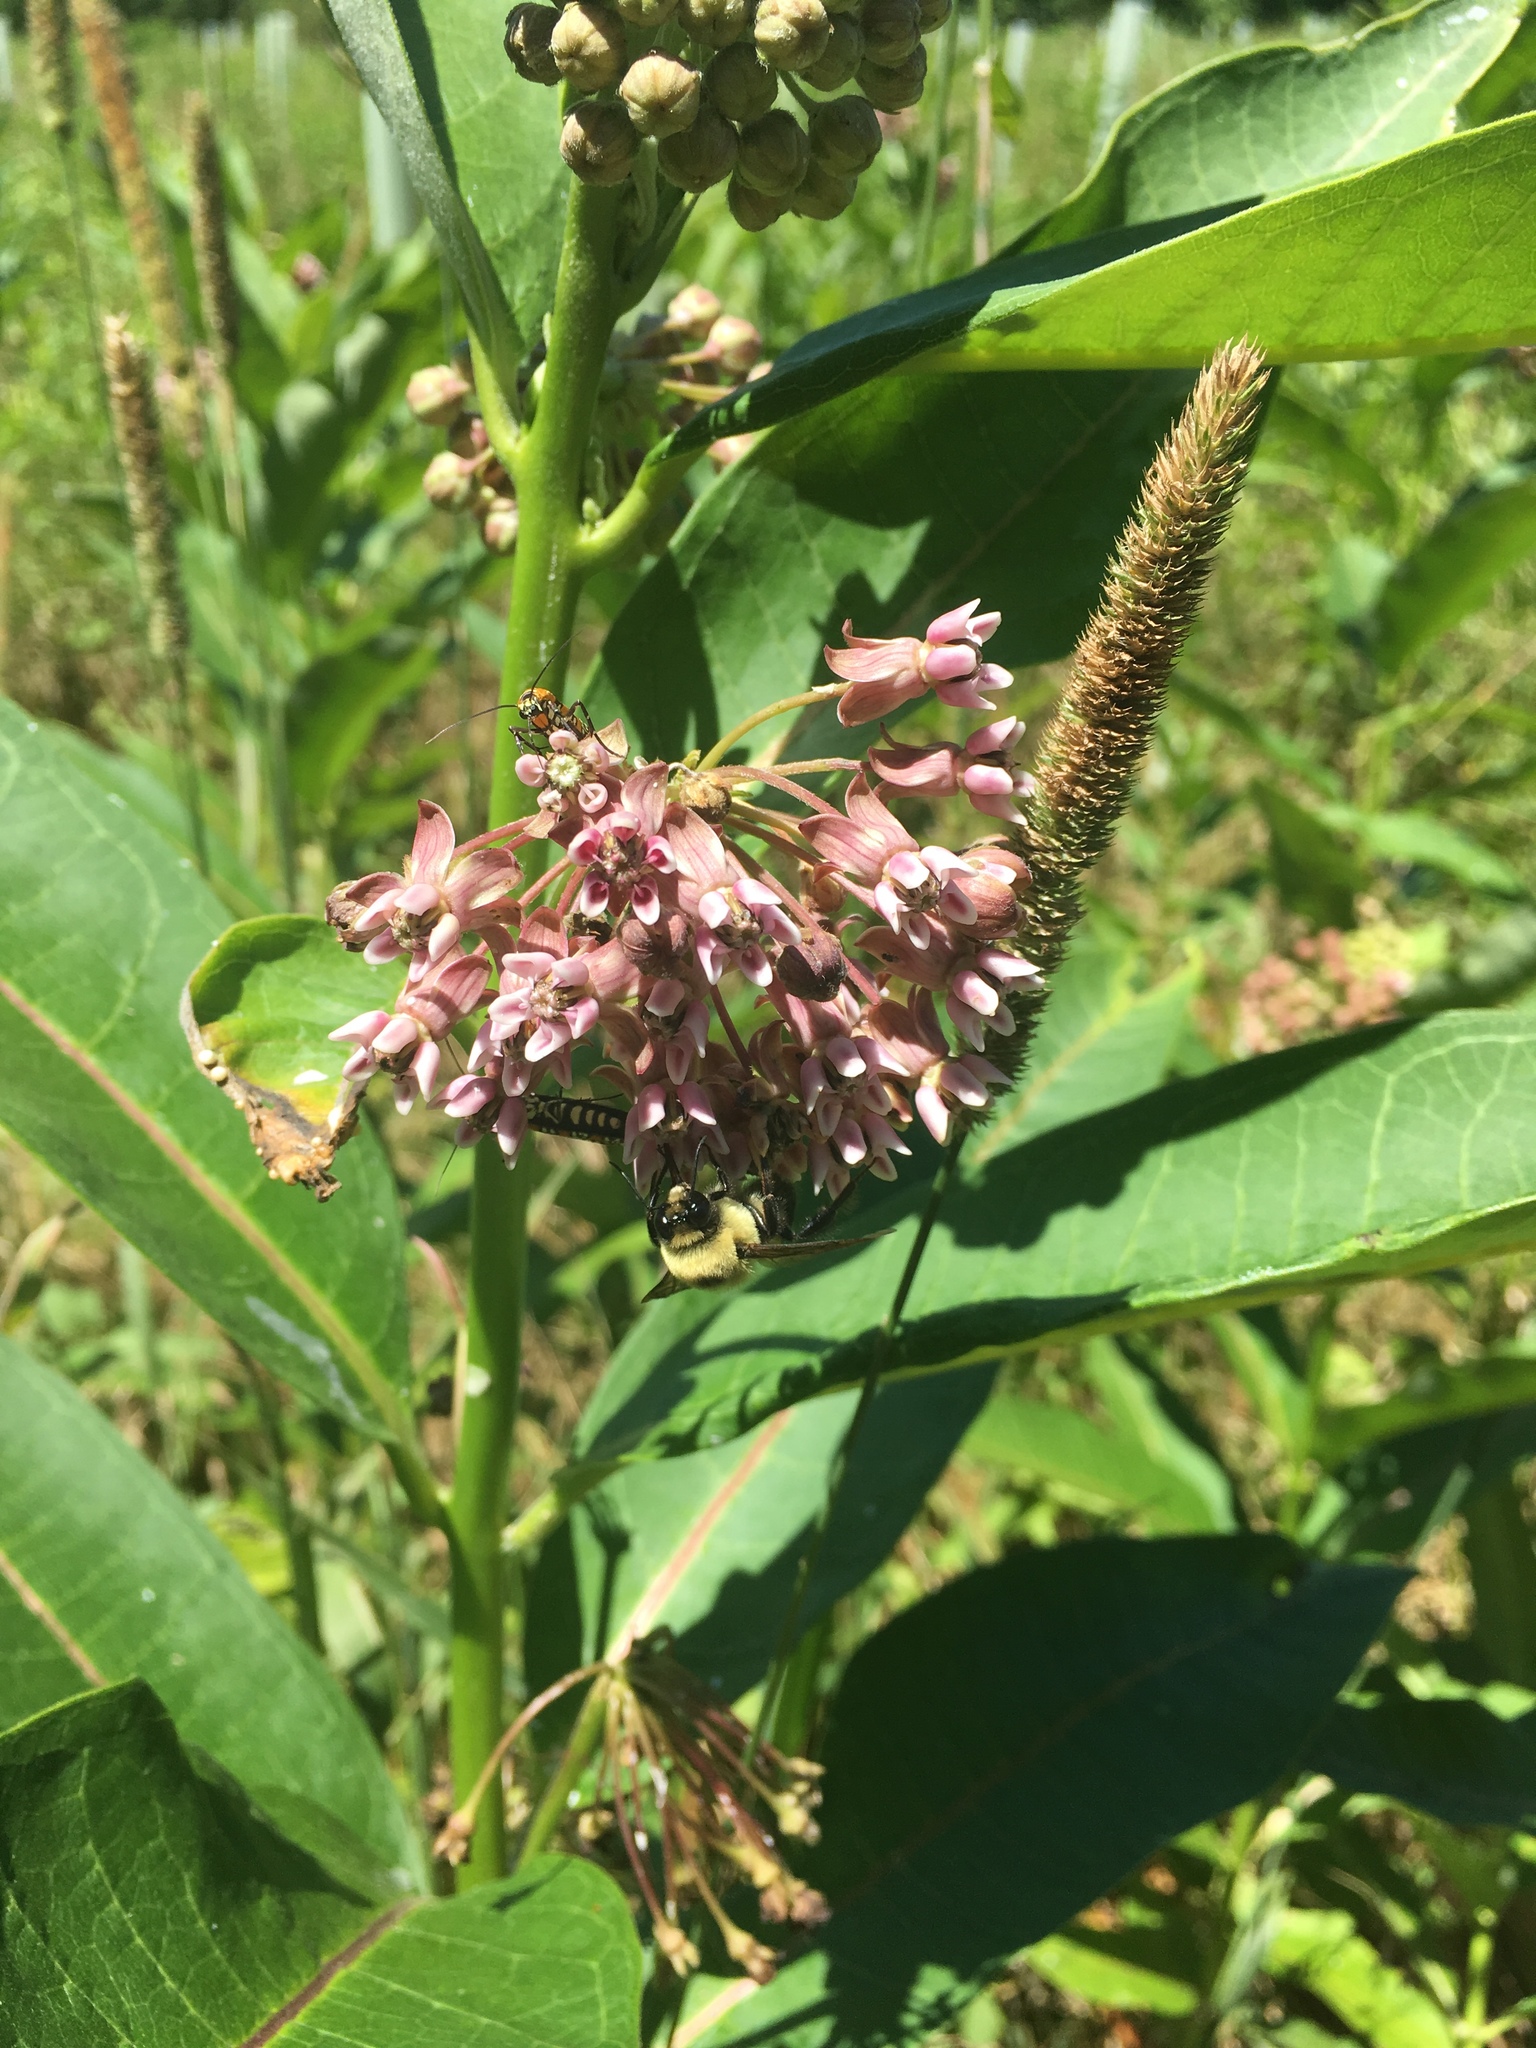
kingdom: Plantae
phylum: Tracheophyta
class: Magnoliopsida
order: Gentianales
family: Apocynaceae
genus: Asclepias
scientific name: Asclepias syriaca
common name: Common milkweed
